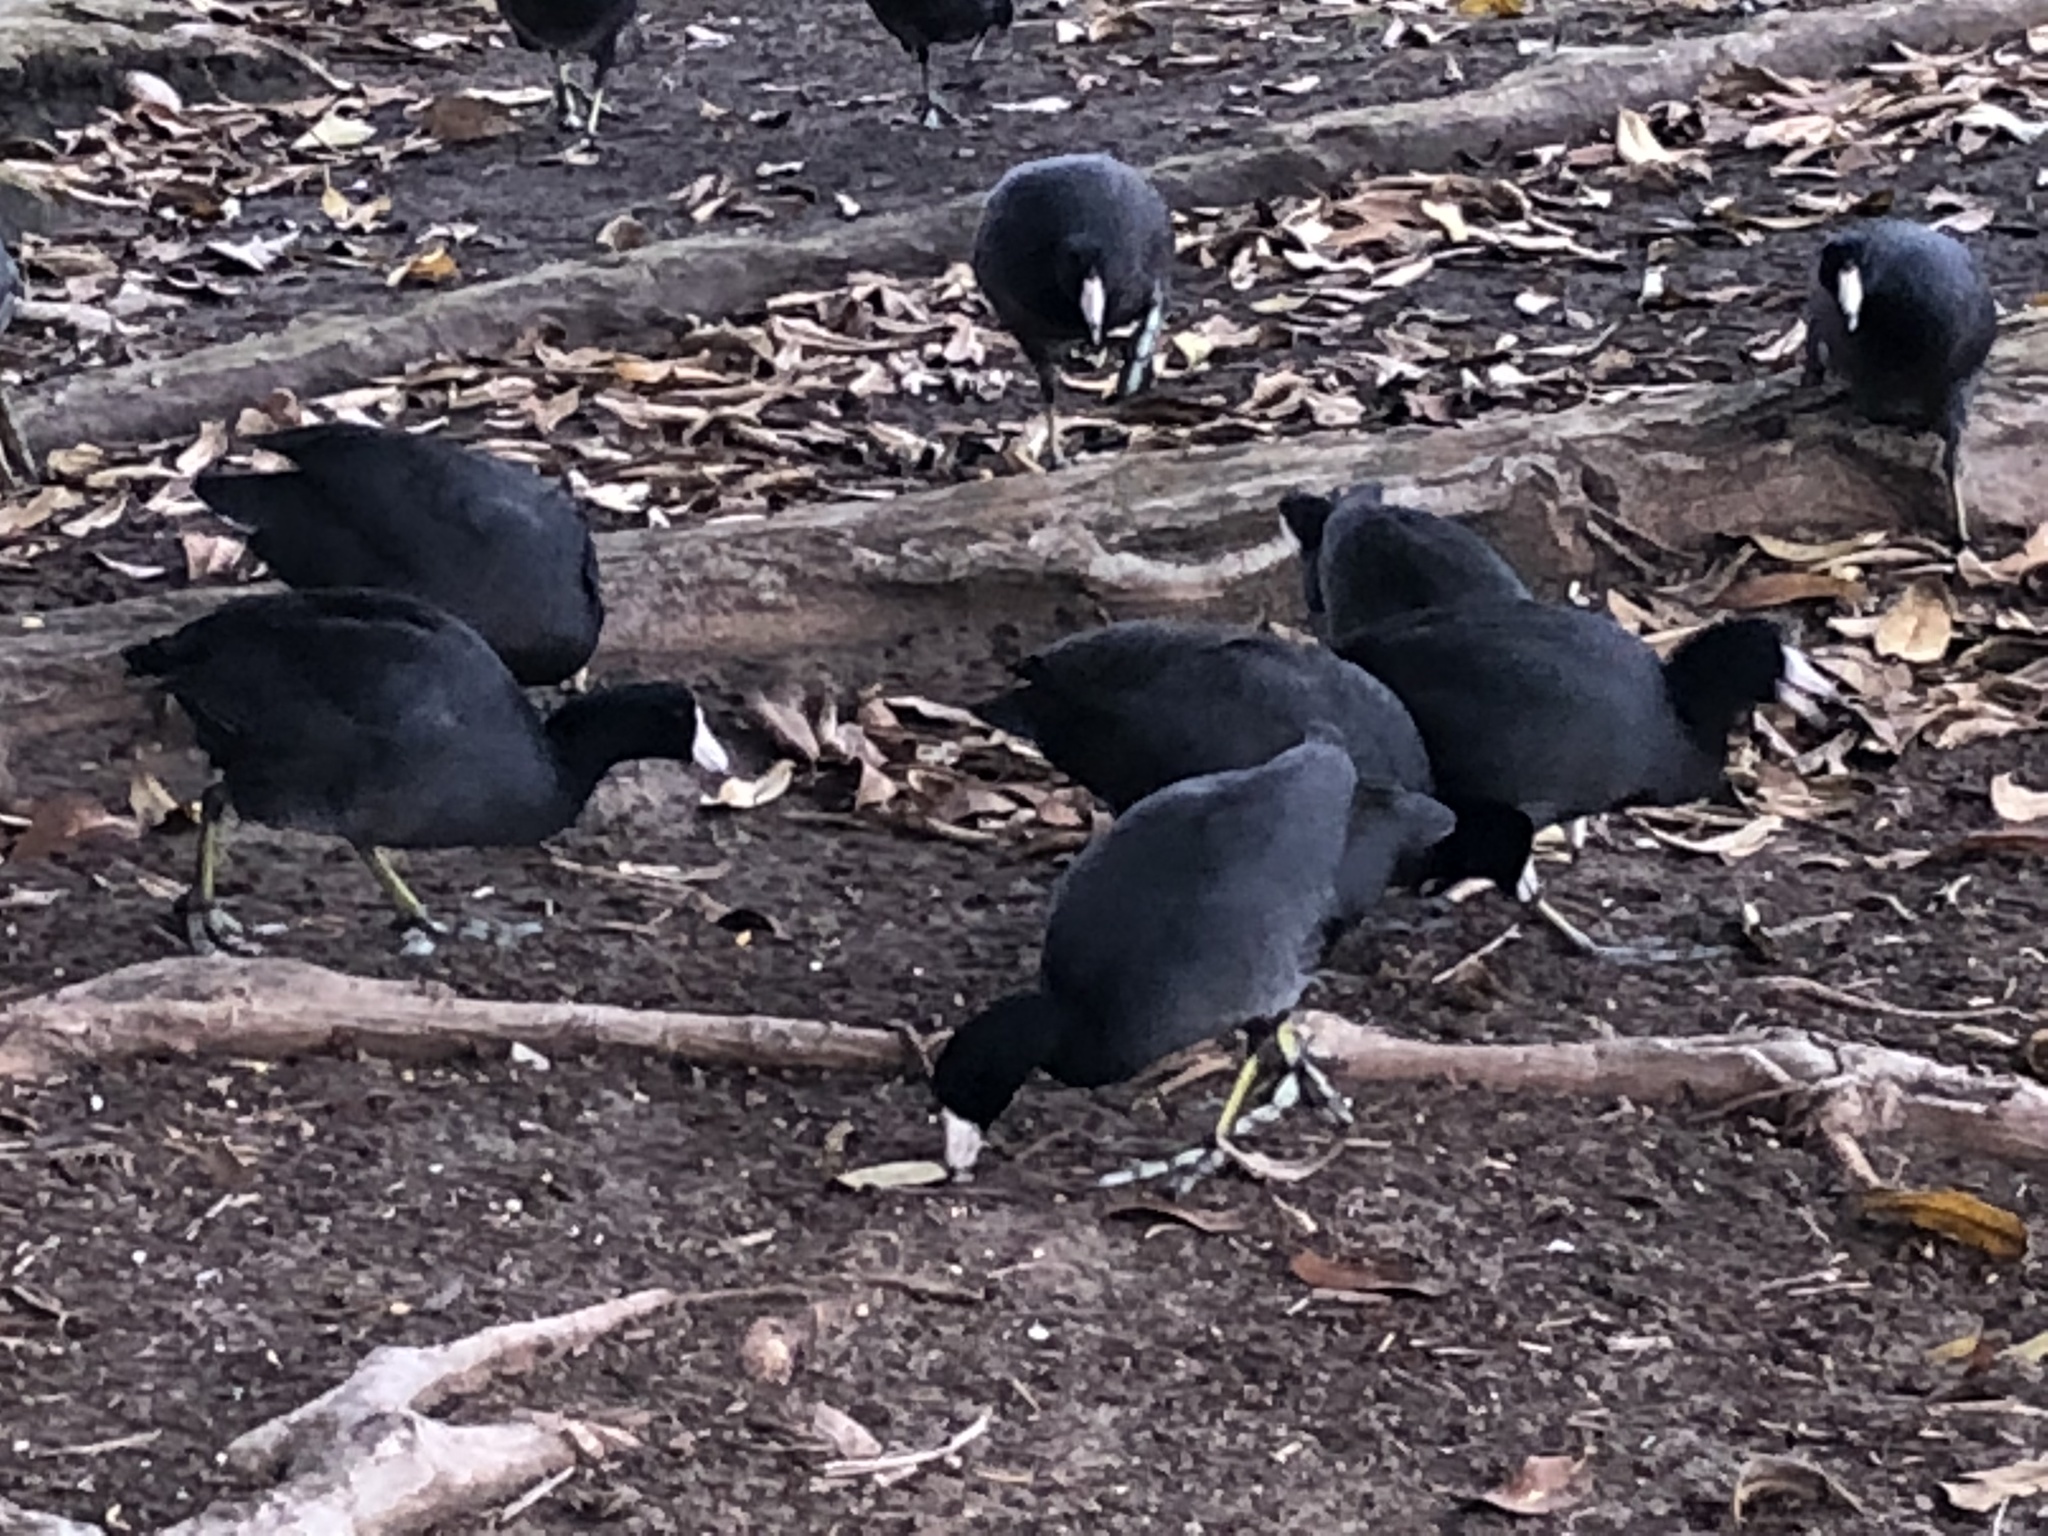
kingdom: Animalia
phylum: Chordata
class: Aves
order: Gruiformes
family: Rallidae
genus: Fulica
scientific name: Fulica americana
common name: American coot
